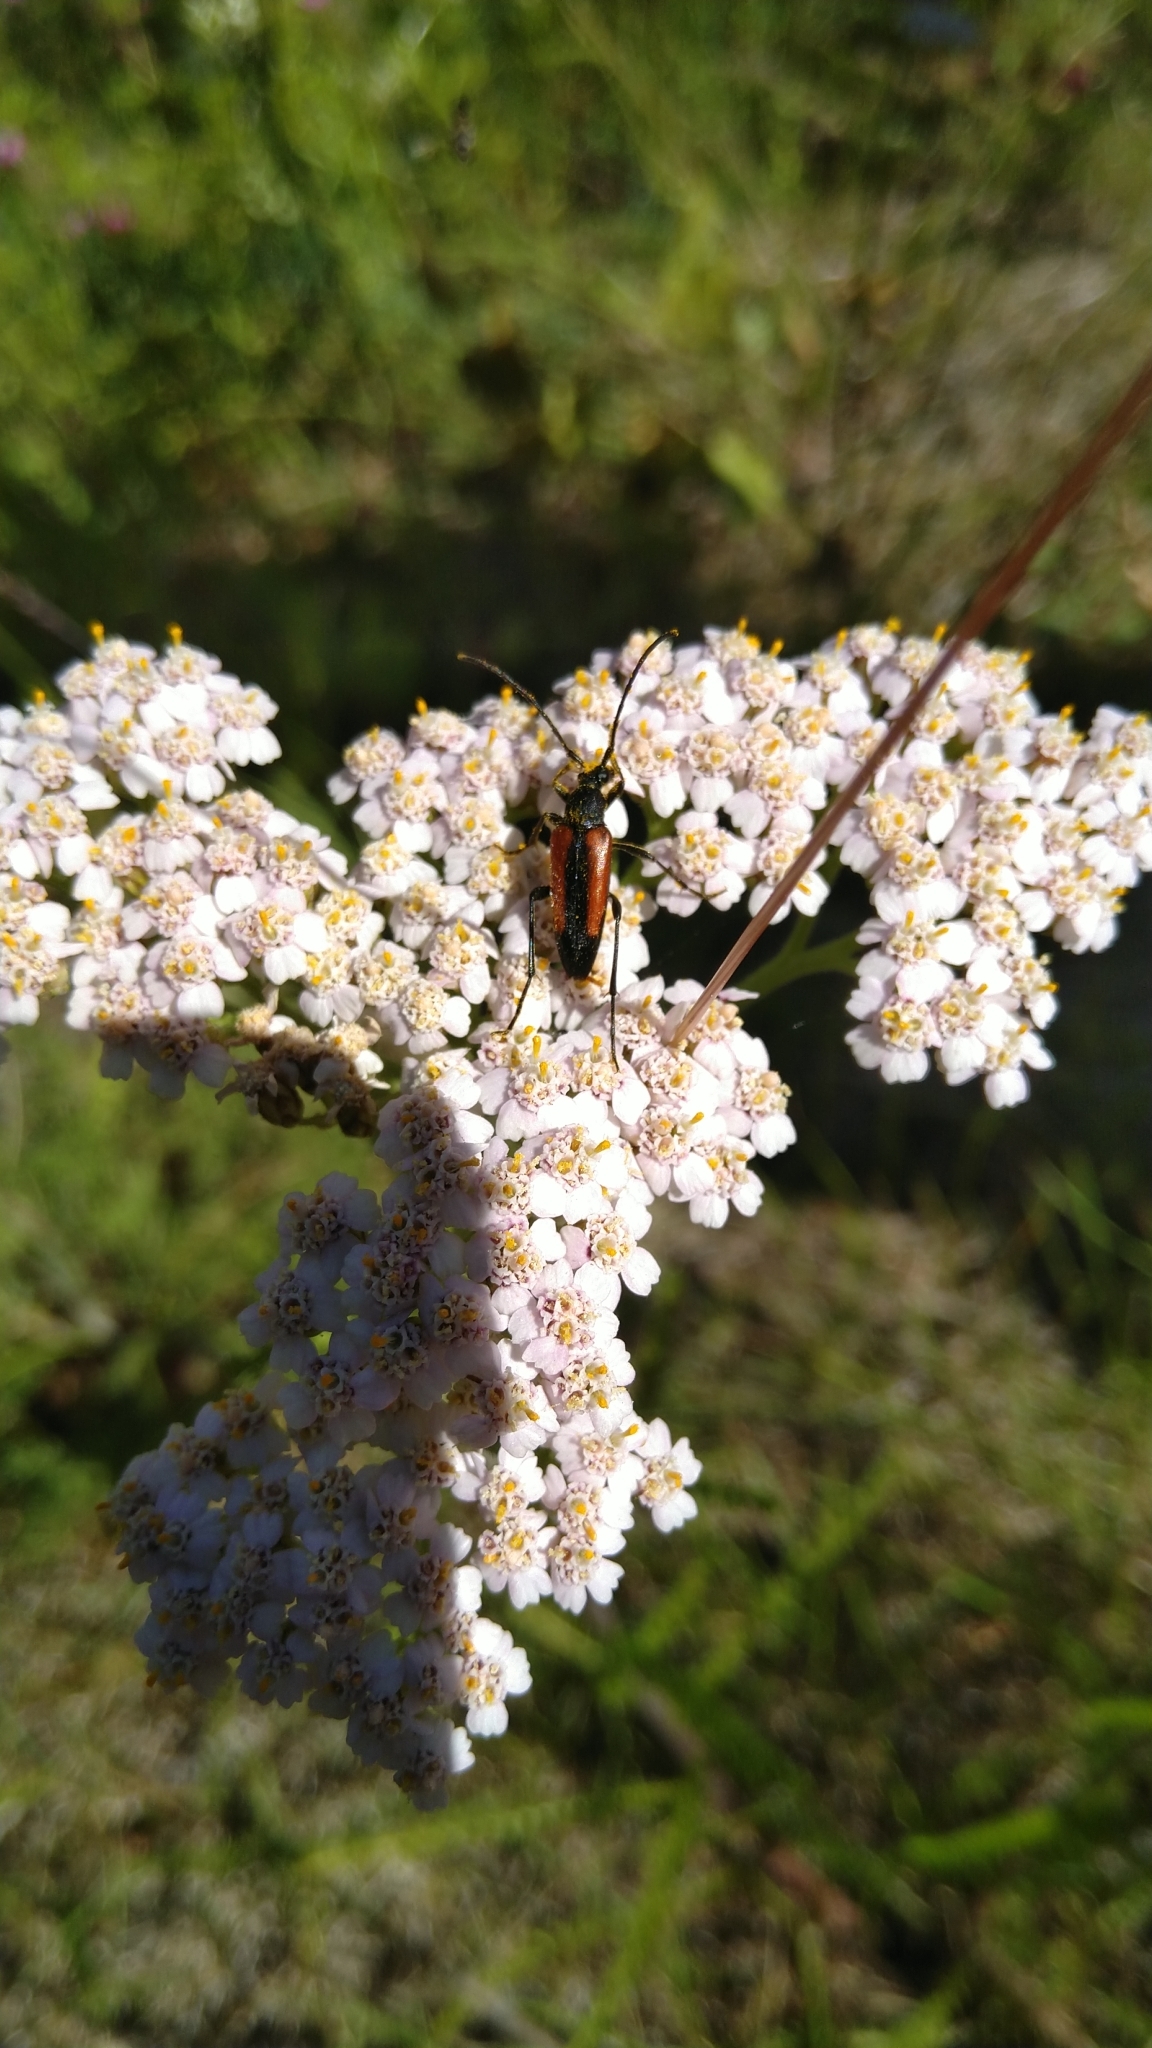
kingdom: Animalia
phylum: Arthropoda
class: Insecta
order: Coleoptera
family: Cerambycidae
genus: Stenurella
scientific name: Stenurella melanura
